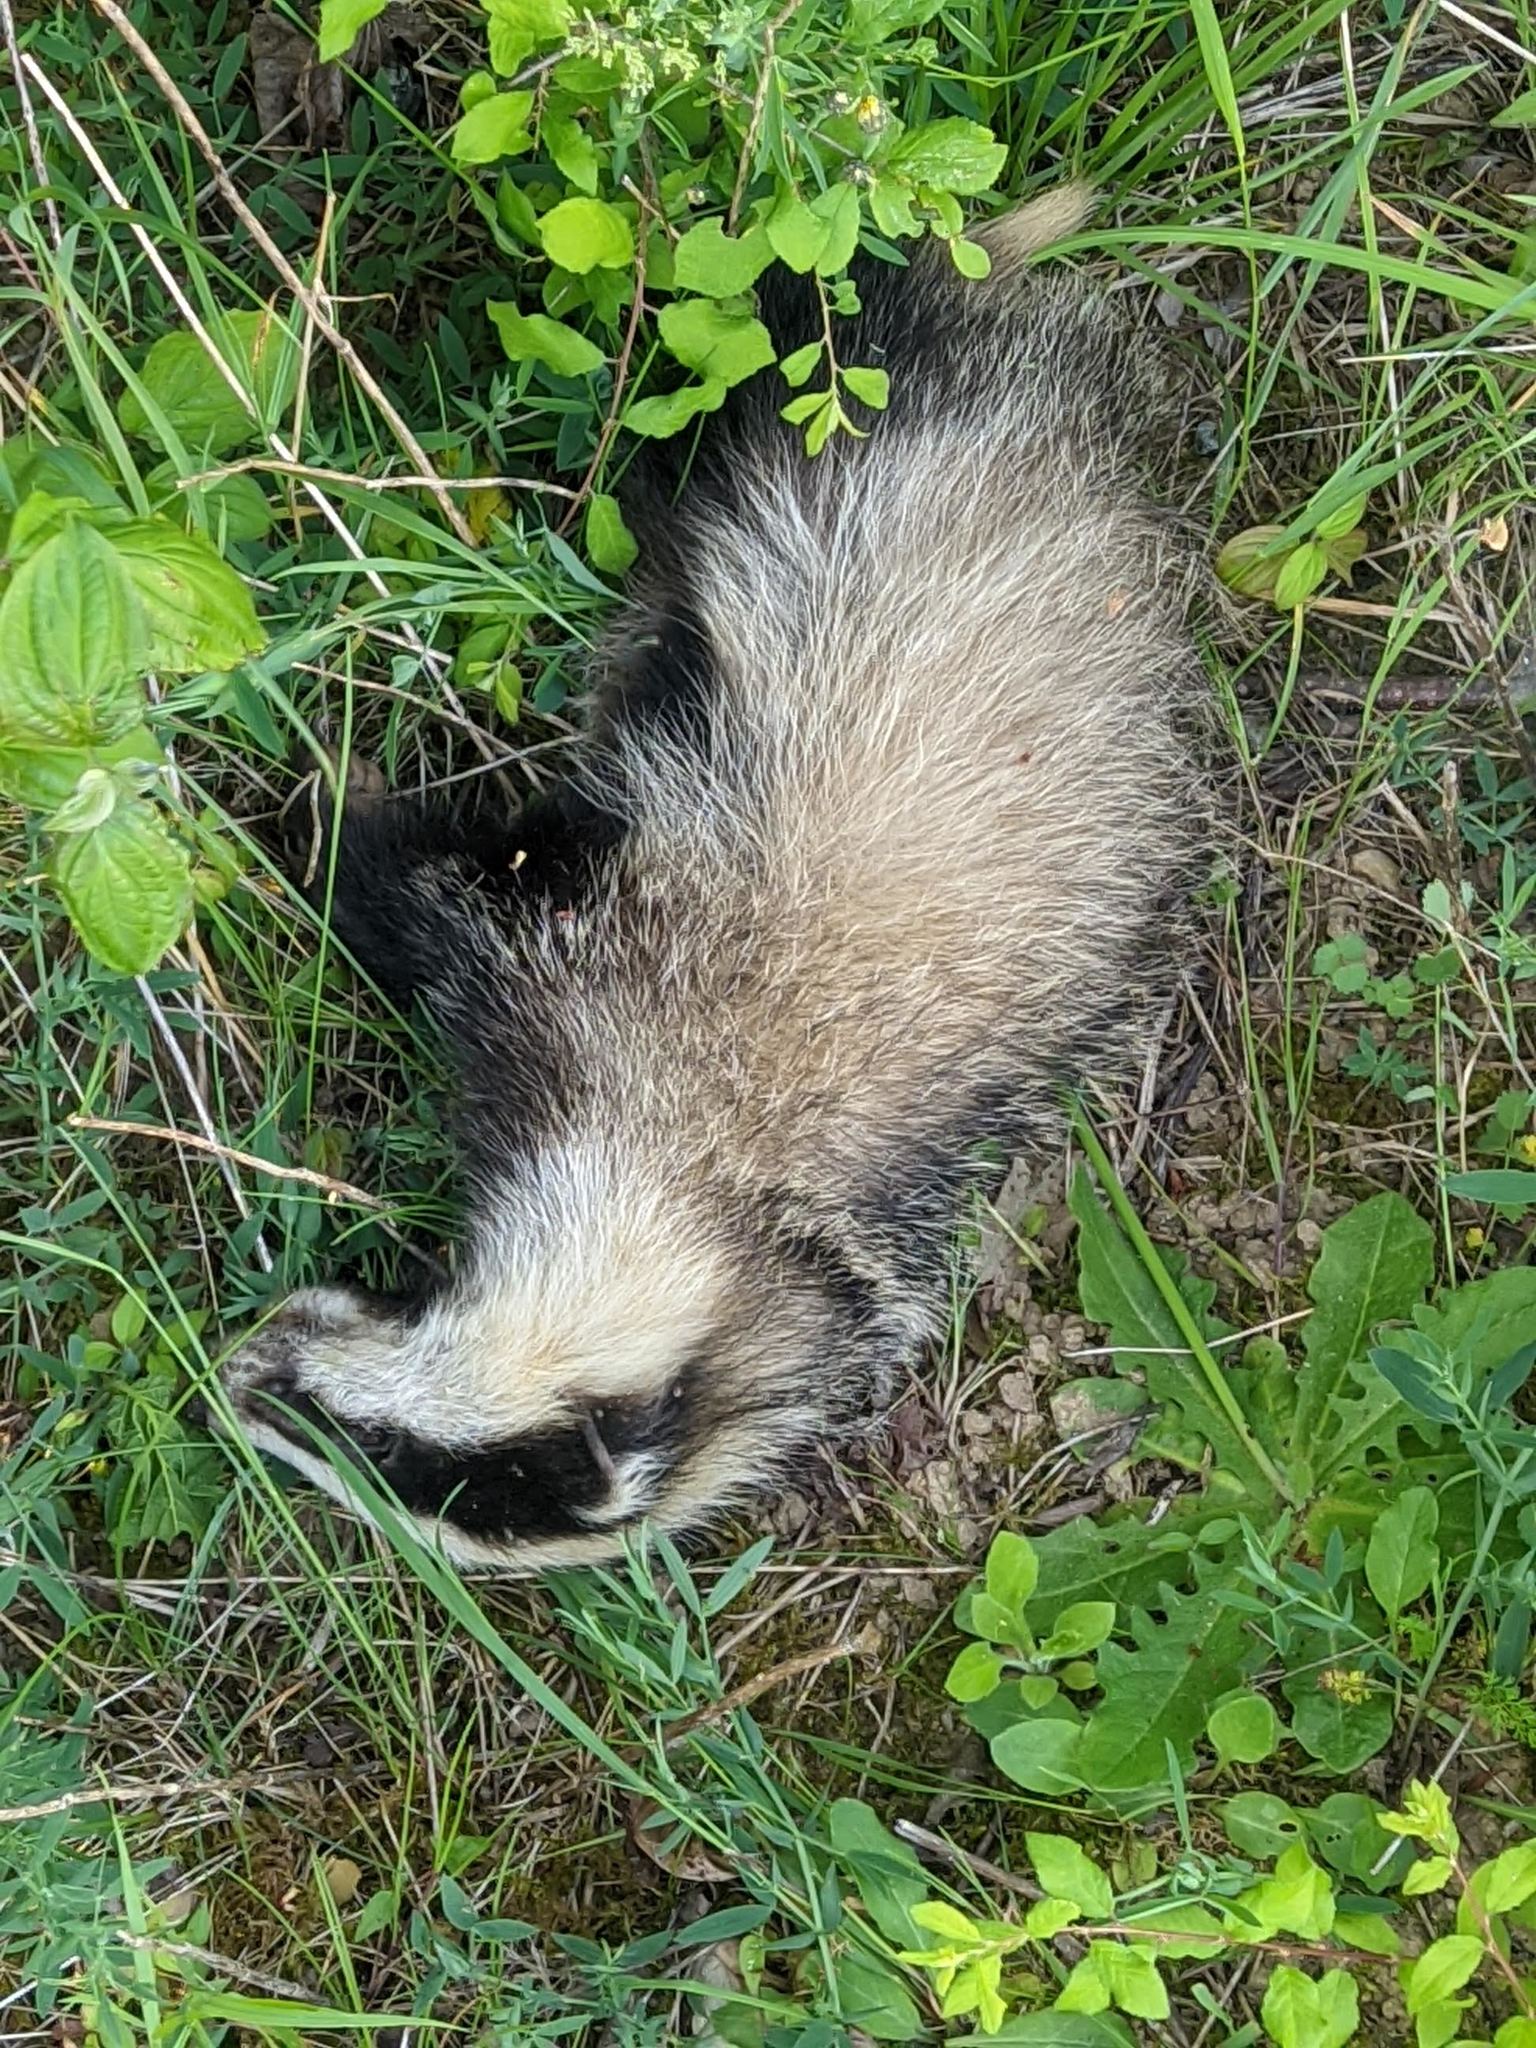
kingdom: Animalia
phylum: Chordata
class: Mammalia
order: Carnivora
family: Mustelidae
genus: Meles
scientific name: Meles meles
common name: Eurasian badger
